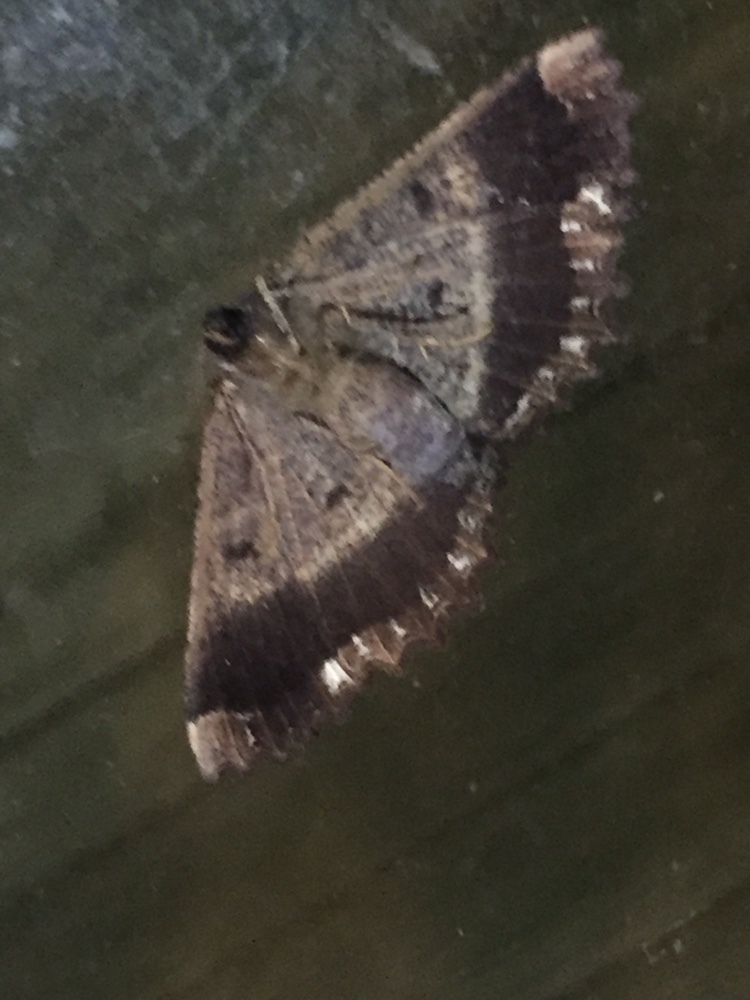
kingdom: Animalia
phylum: Arthropoda
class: Insecta
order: Lepidoptera
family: Geometridae
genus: Gellonia
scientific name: Gellonia dejectaria
